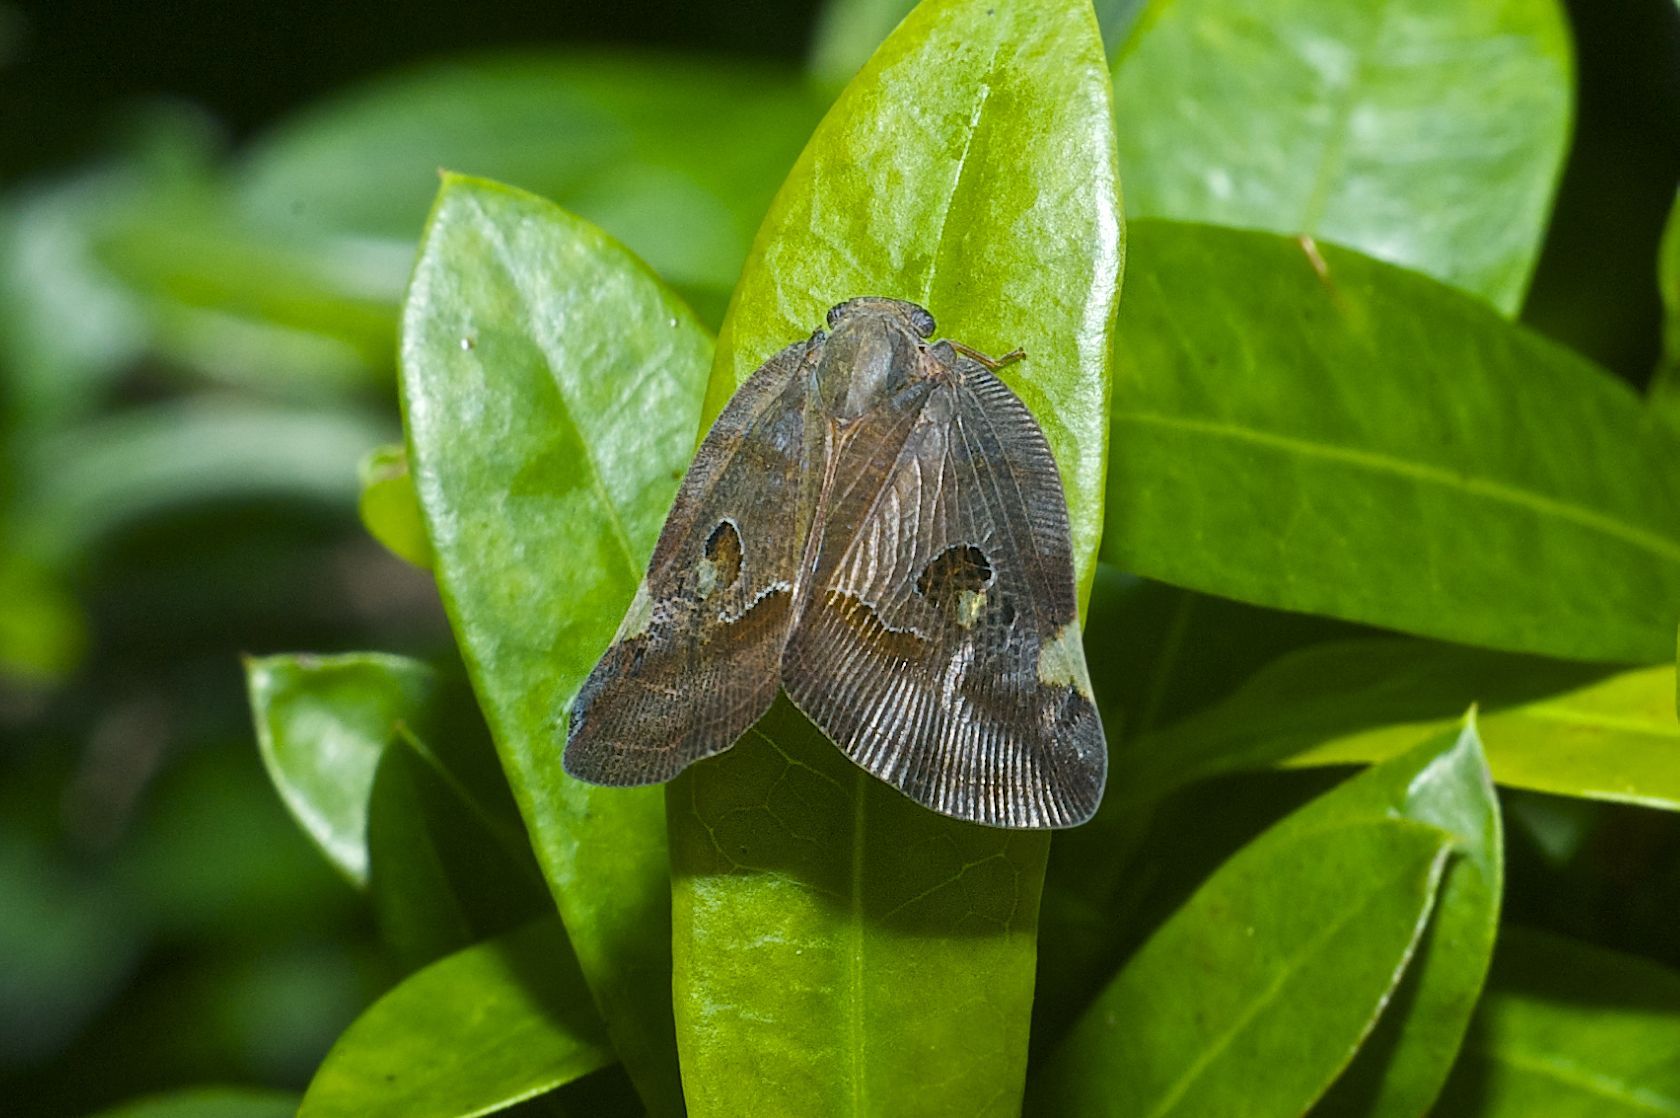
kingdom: Animalia
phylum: Arthropoda
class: Insecta
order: Hemiptera
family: Ricaniidae
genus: Ricania
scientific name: Ricania guttata
